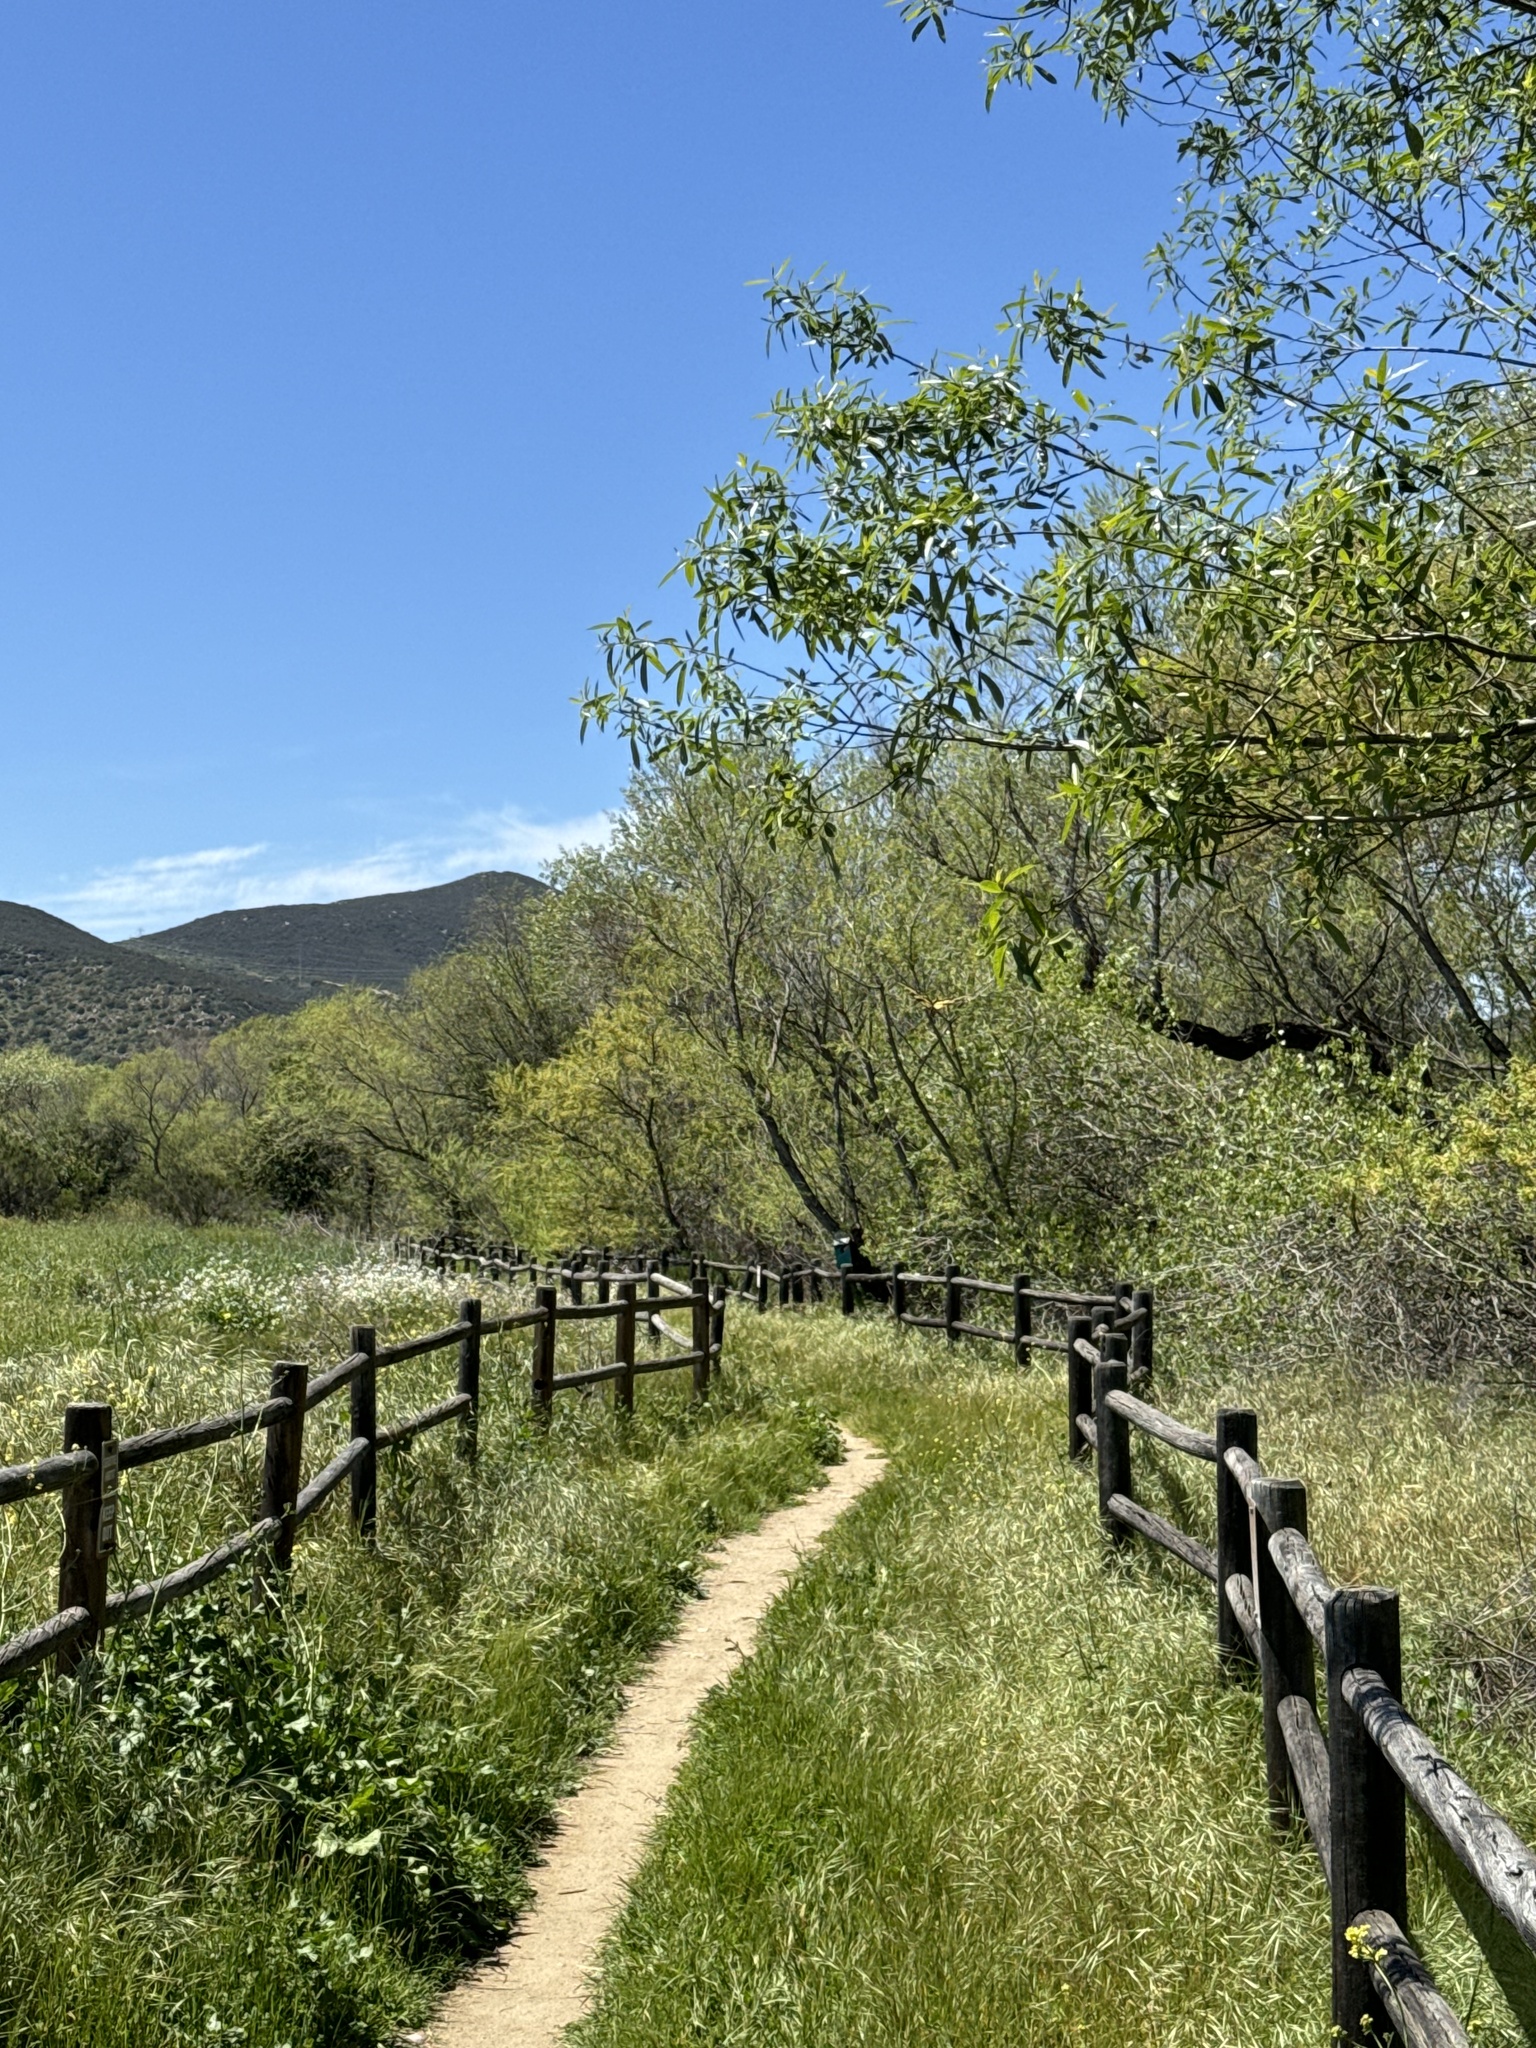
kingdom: Animalia
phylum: Arthropoda
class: Insecta
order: Lepidoptera
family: Papilionidae
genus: Papilio
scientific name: Papilio rutulus
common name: Western tiger swallowtail
